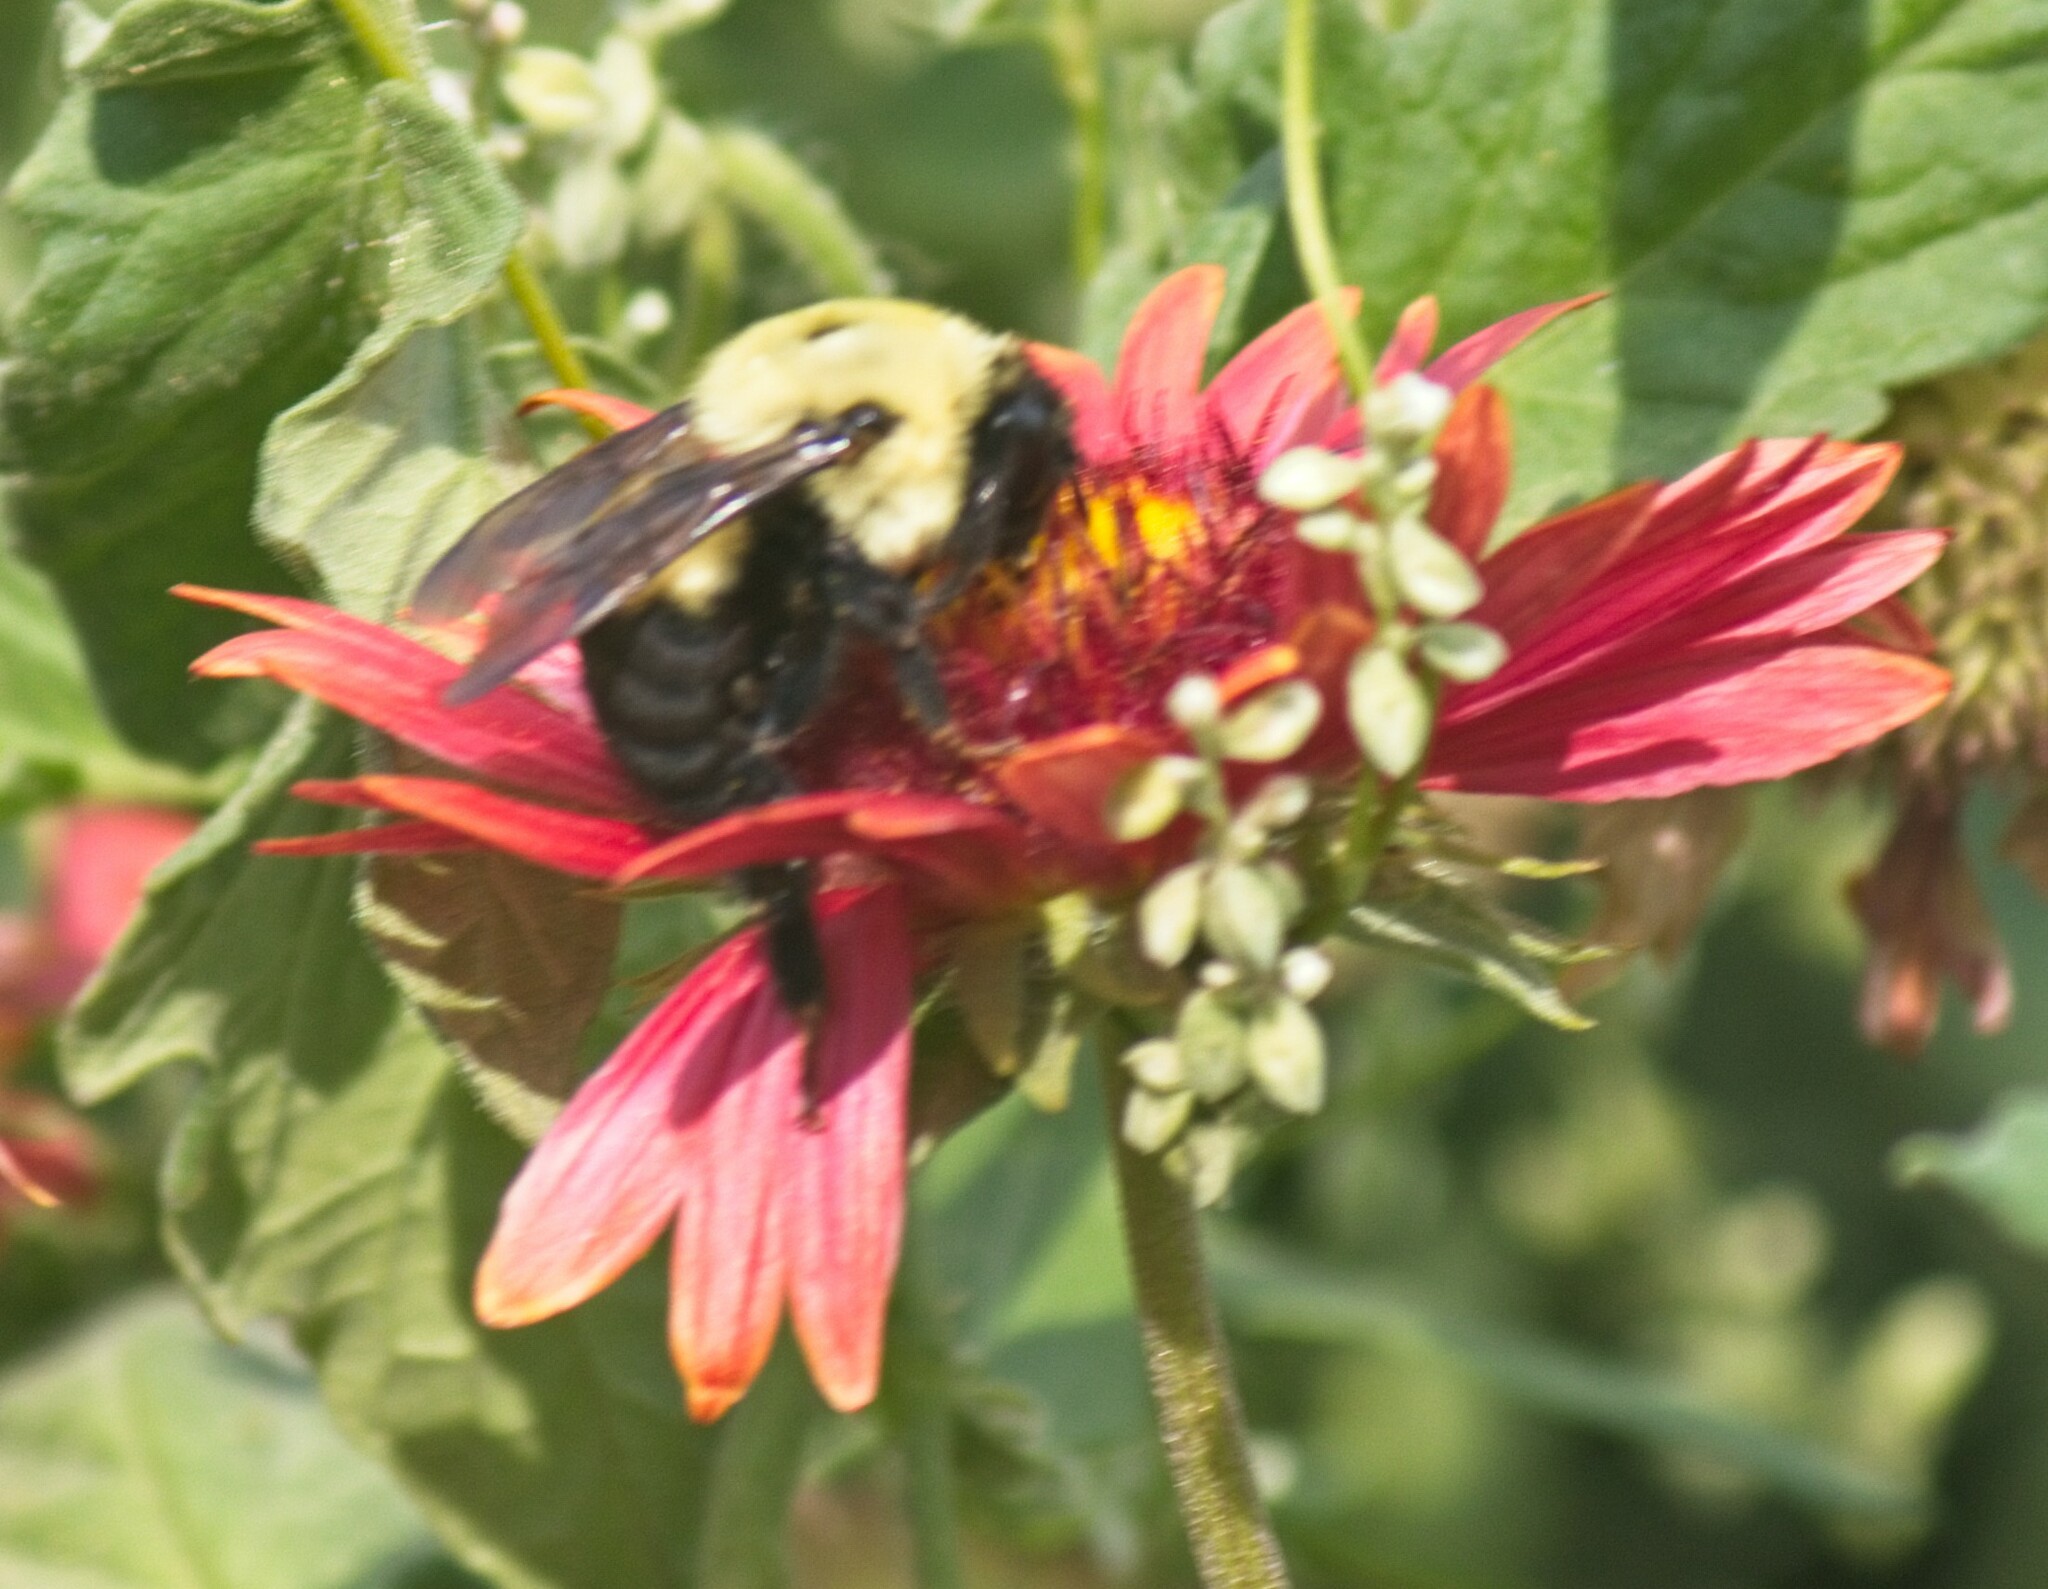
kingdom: Animalia
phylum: Arthropoda
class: Insecta
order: Hymenoptera
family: Apidae
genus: Bombus
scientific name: Bombus griseocollis
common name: Brown-belted bumble bee
